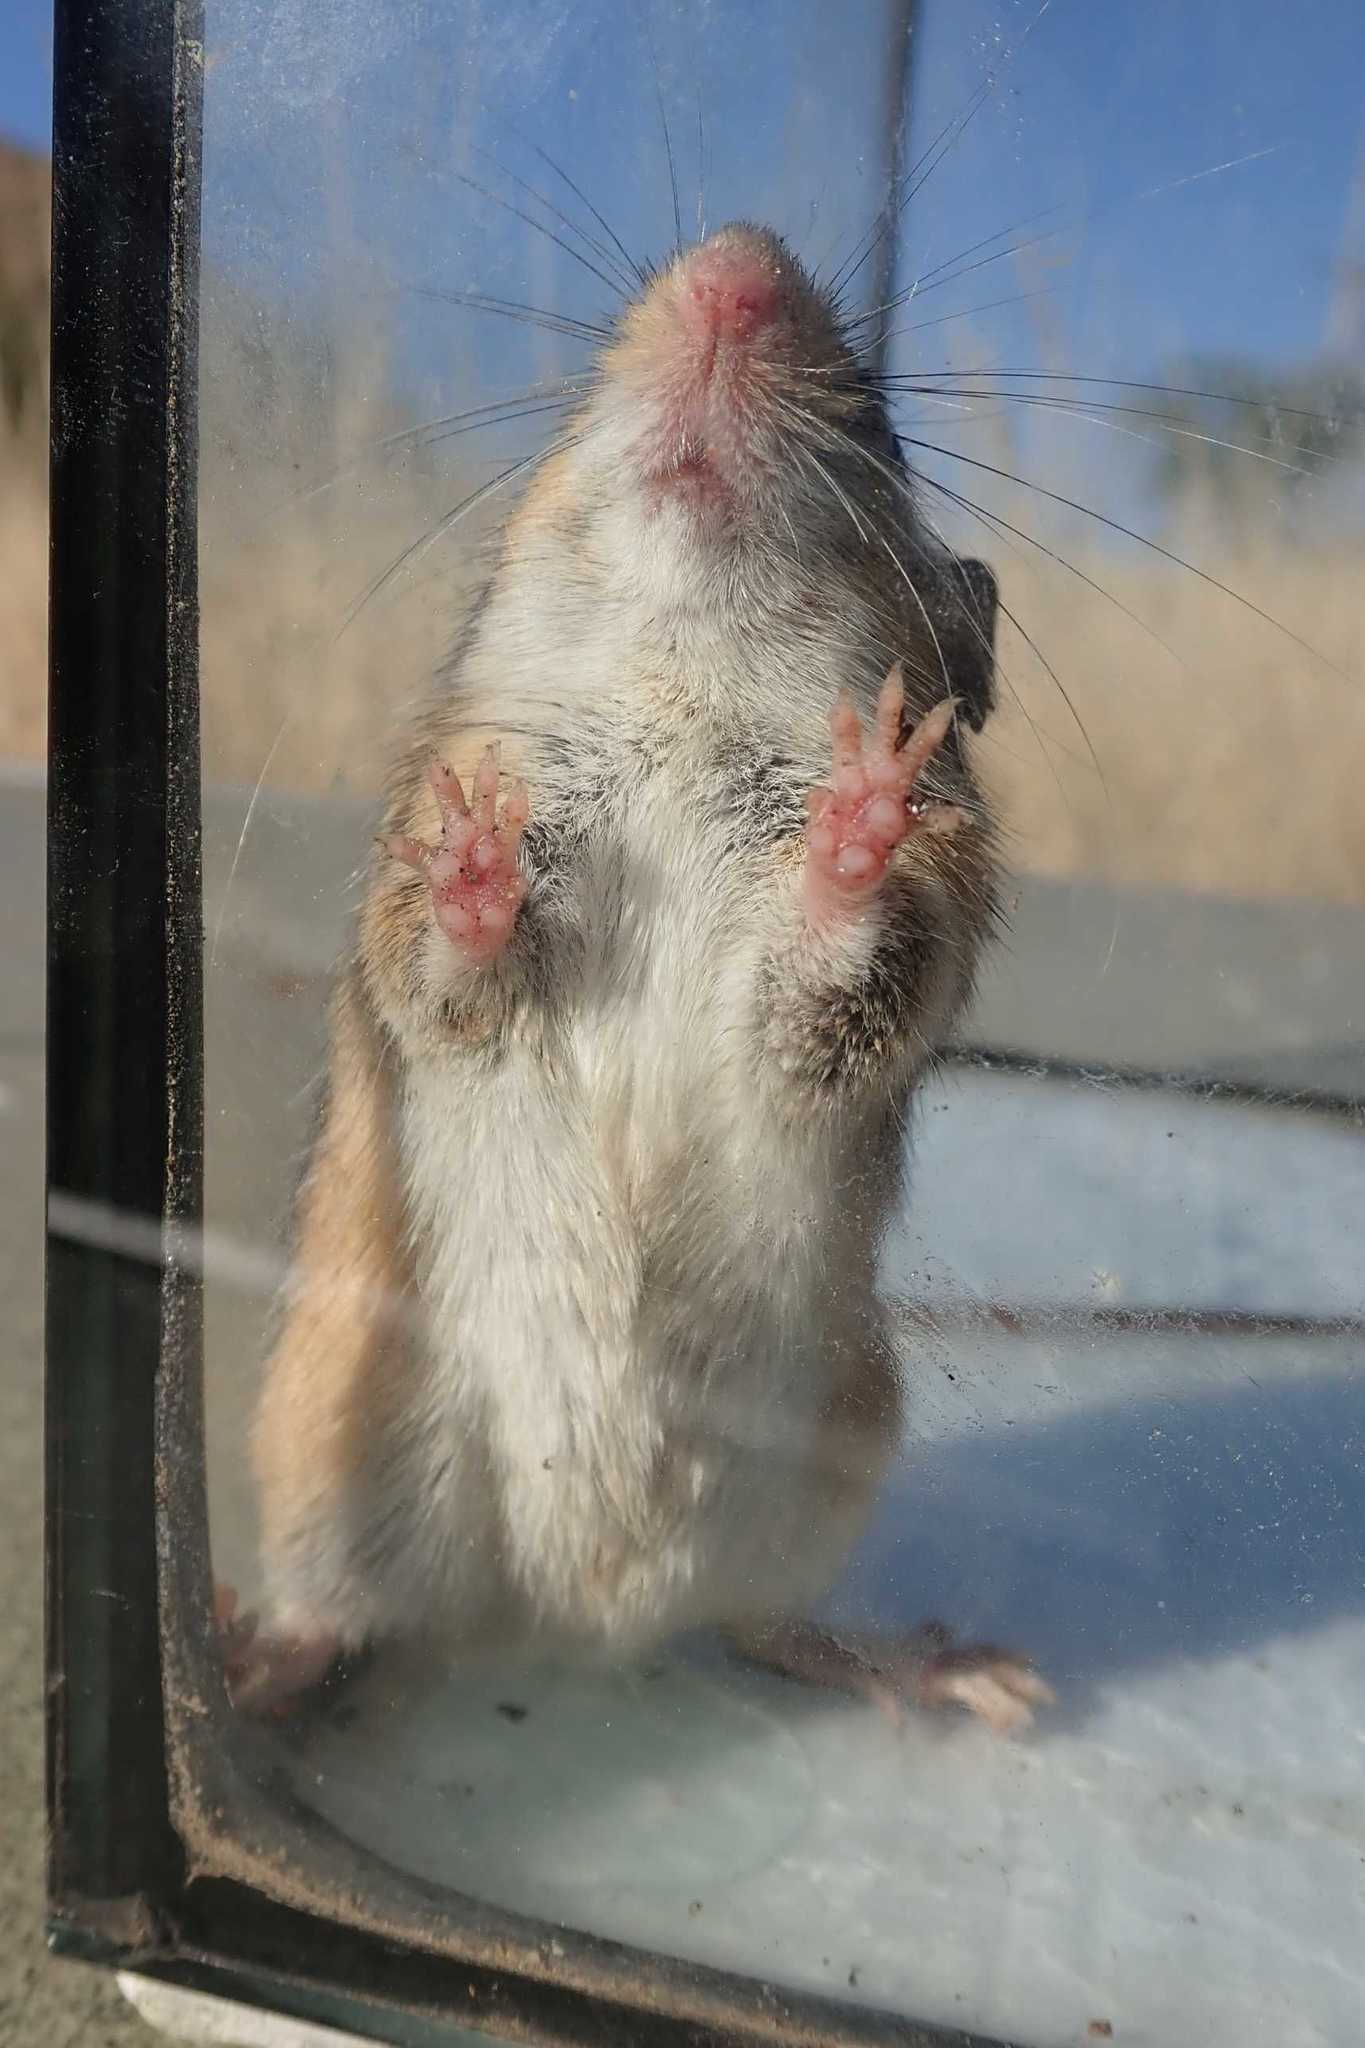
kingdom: Animalia
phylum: Chordata
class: Mammalia
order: Rodentia
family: Muridae
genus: Aethomys
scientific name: Aethomys ineptus
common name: Tete veld aethomys
